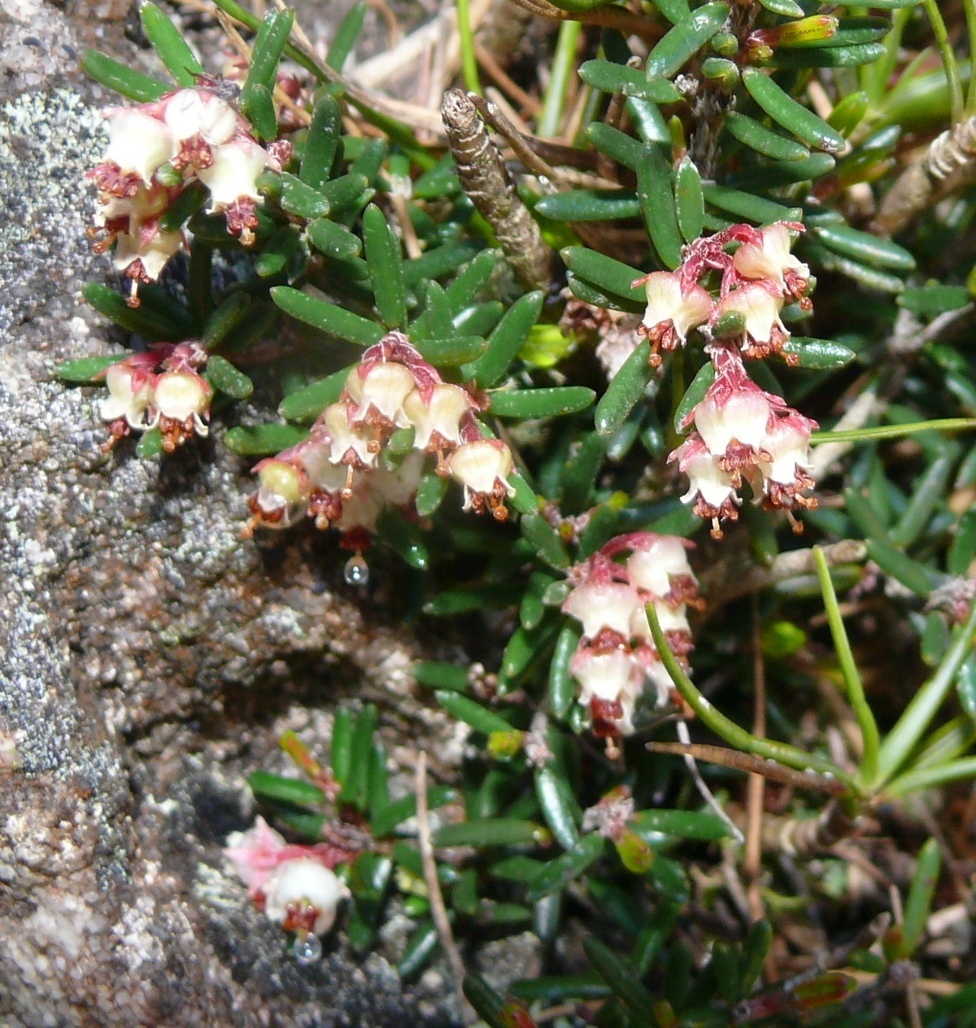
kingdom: Plantae
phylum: Tracheophyta
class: Magnoliopsida
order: Ericales
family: Ericaceae
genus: Erica
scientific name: Erica obtusata
